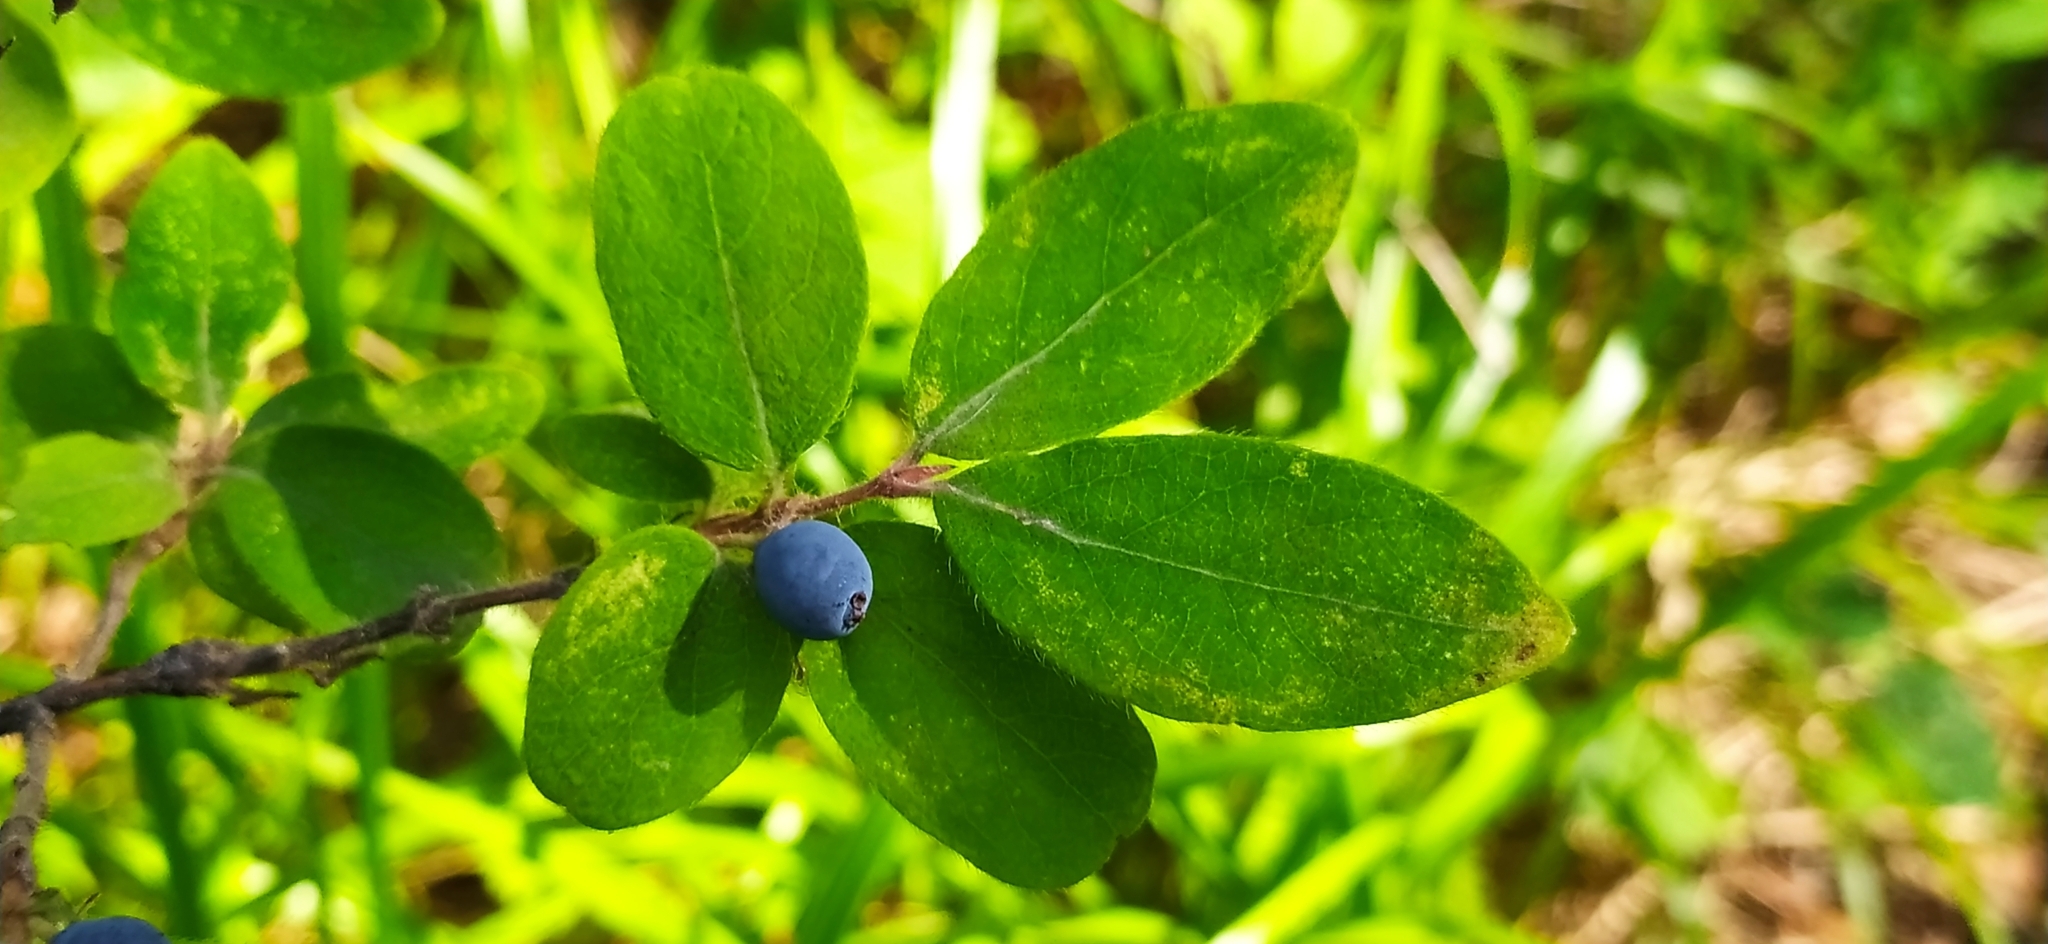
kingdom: Plantae
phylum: Tracheophyta
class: Magnoliopsida
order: Dipsacales
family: Caprifoliaceae
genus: Lonicera
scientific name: Lonicera caerulea
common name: Blue honeysuckle
